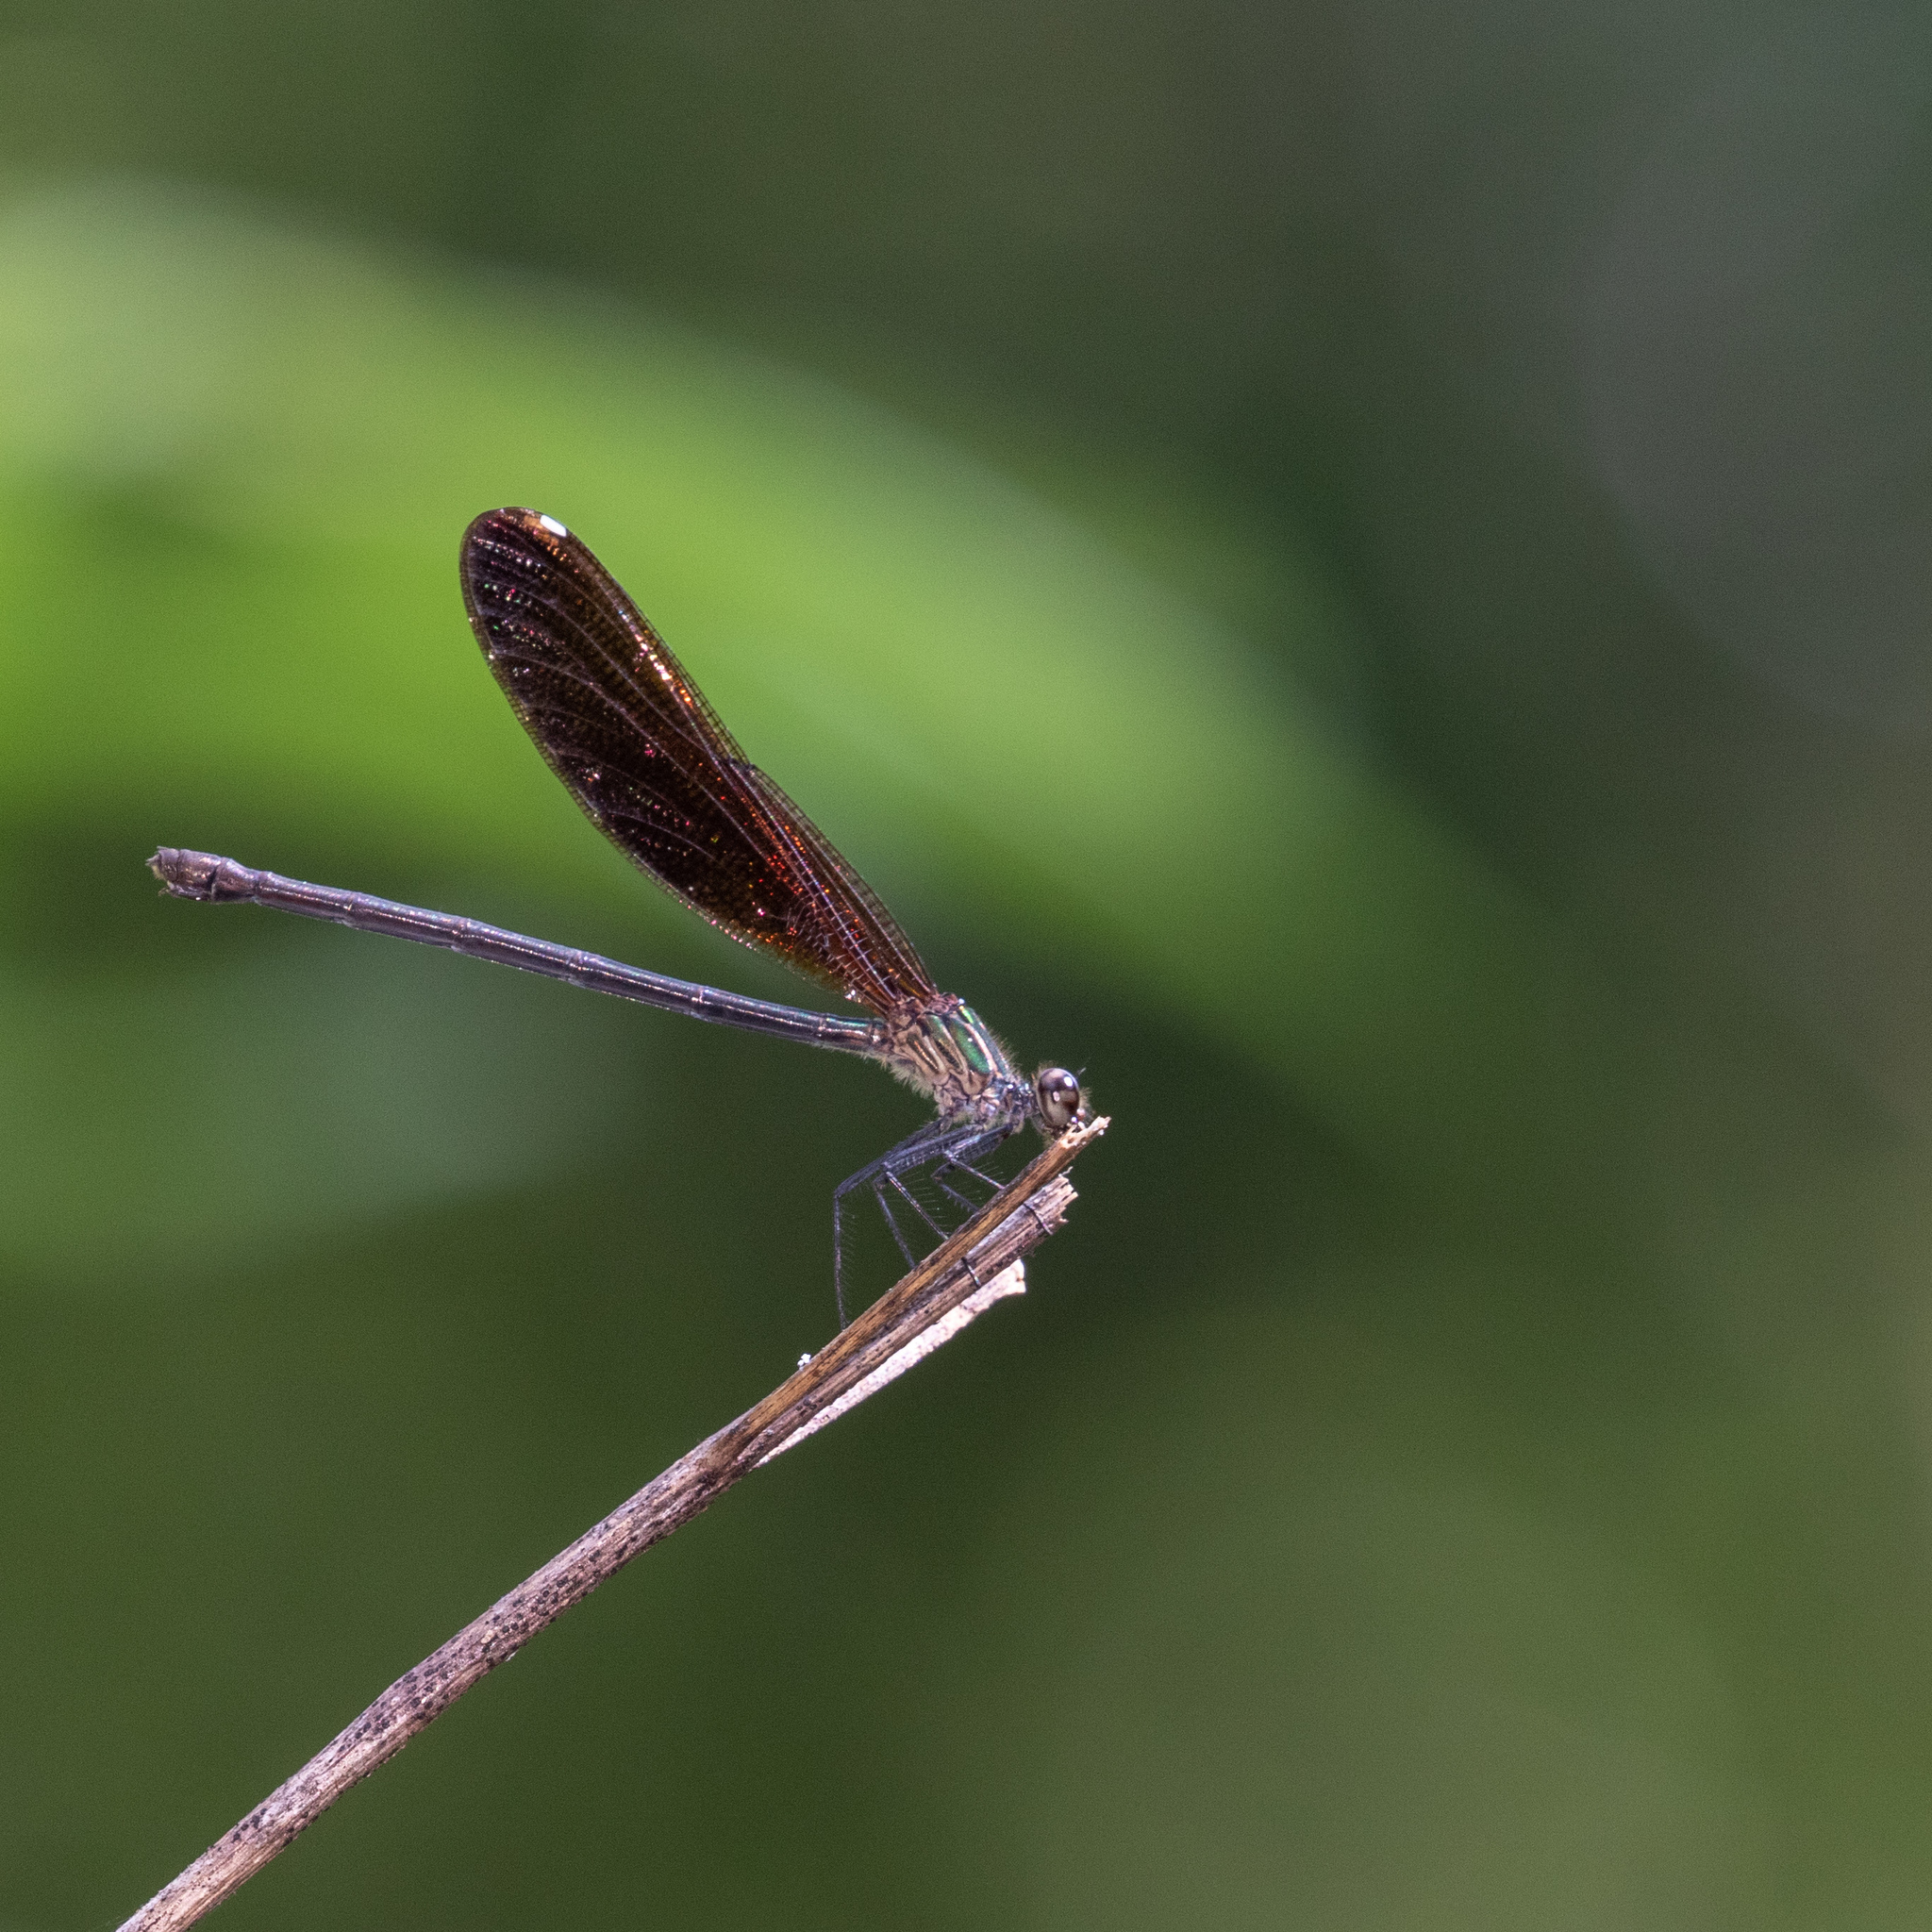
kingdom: Animalia
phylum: Arthropoda
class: Insecta
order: Odonata
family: Calopterygidae
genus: Hetaerina
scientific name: Hetaerina titia
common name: Smoky rubyspot
